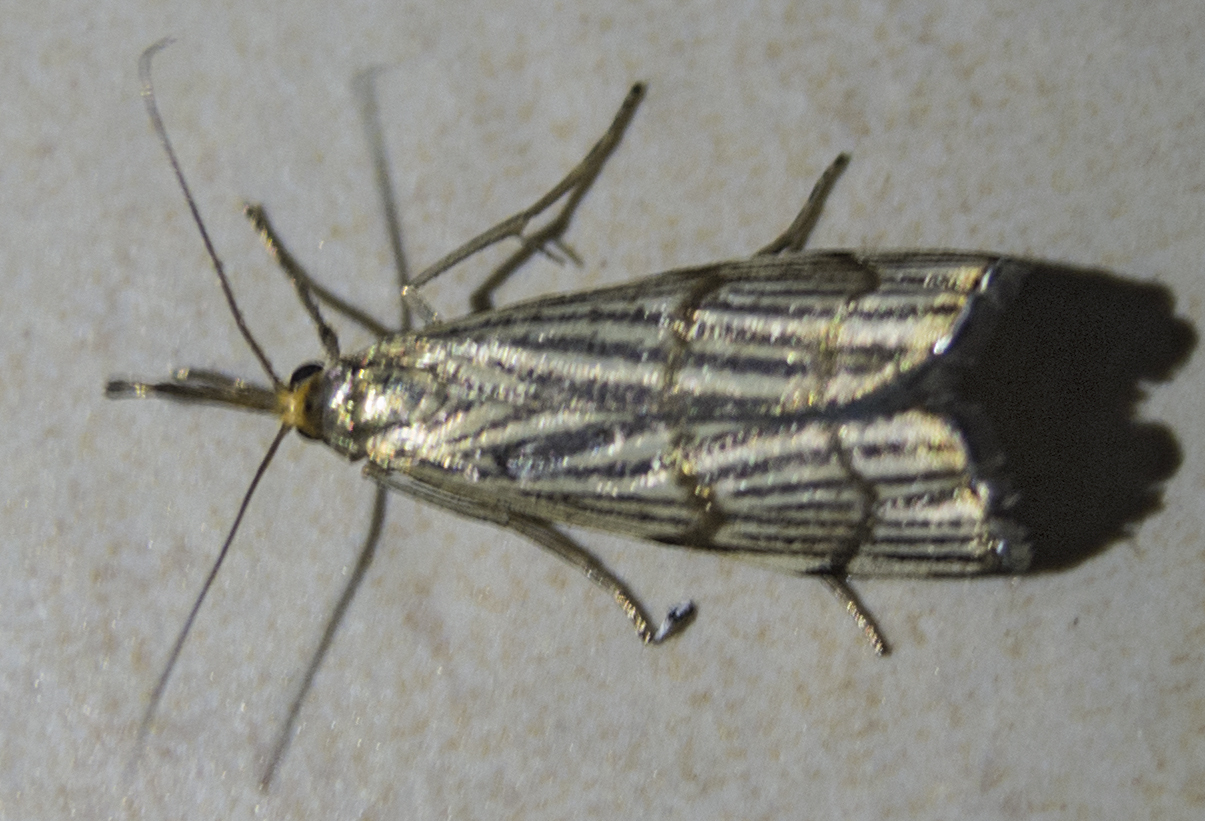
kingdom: Animalia
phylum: Arthropoda
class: Insecta
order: Lepidoptera
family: Crambidae
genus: Chrysocrambus
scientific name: Chrysocrambus linetella
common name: Orange-bar grass-veneer
